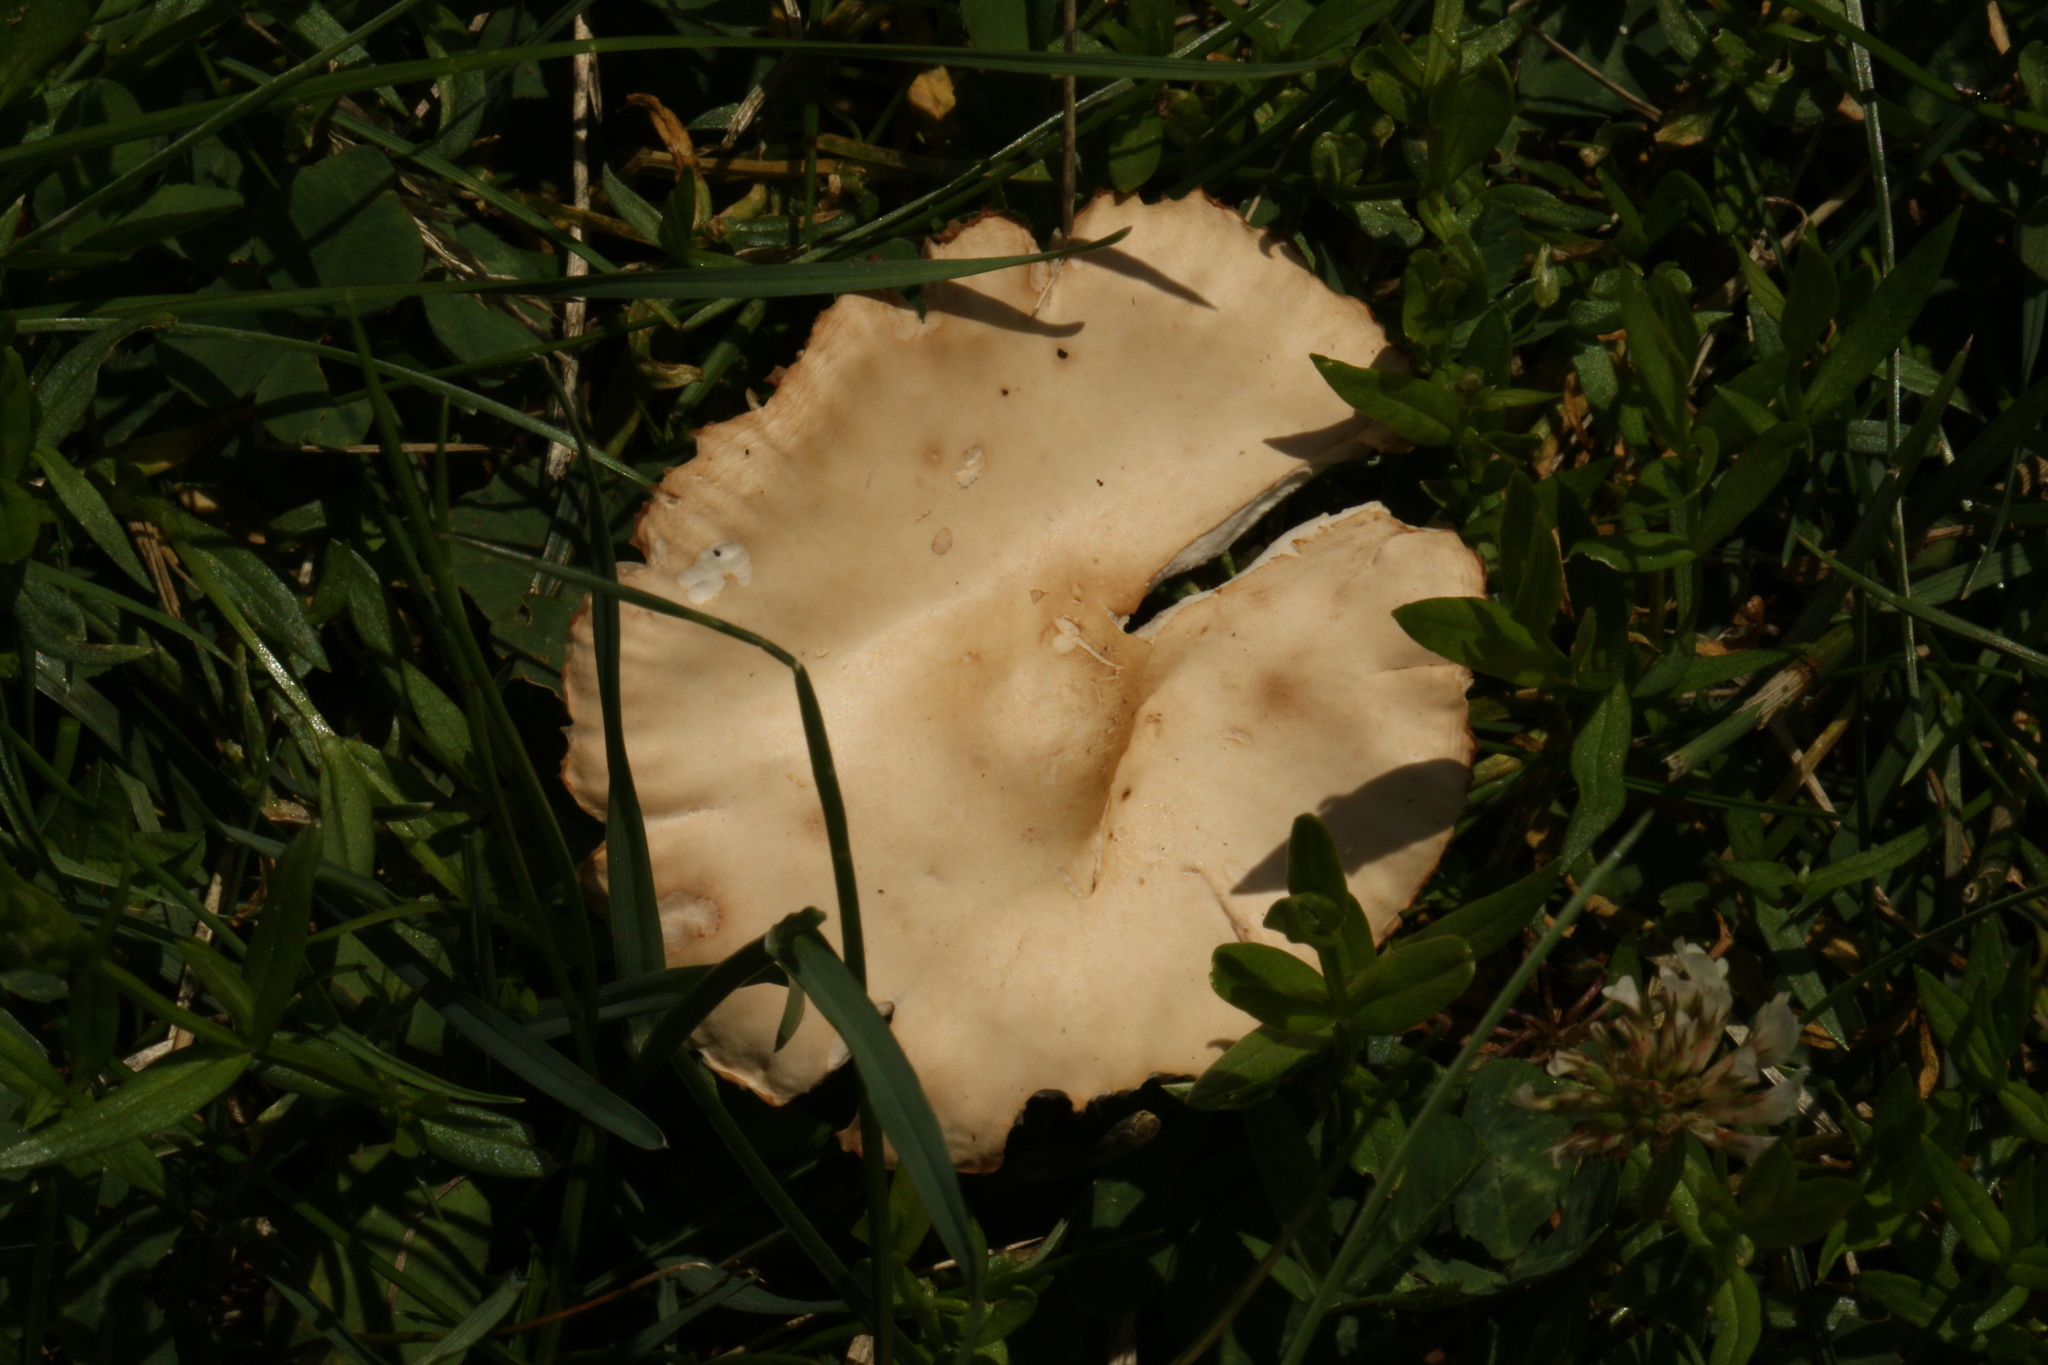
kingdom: Fungi
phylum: Basidiomycota
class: Agaricomycetes
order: Agaricales
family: Marasmiaceae
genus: Marasmius
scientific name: Marasmius oreades
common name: Fairy ring champignon
